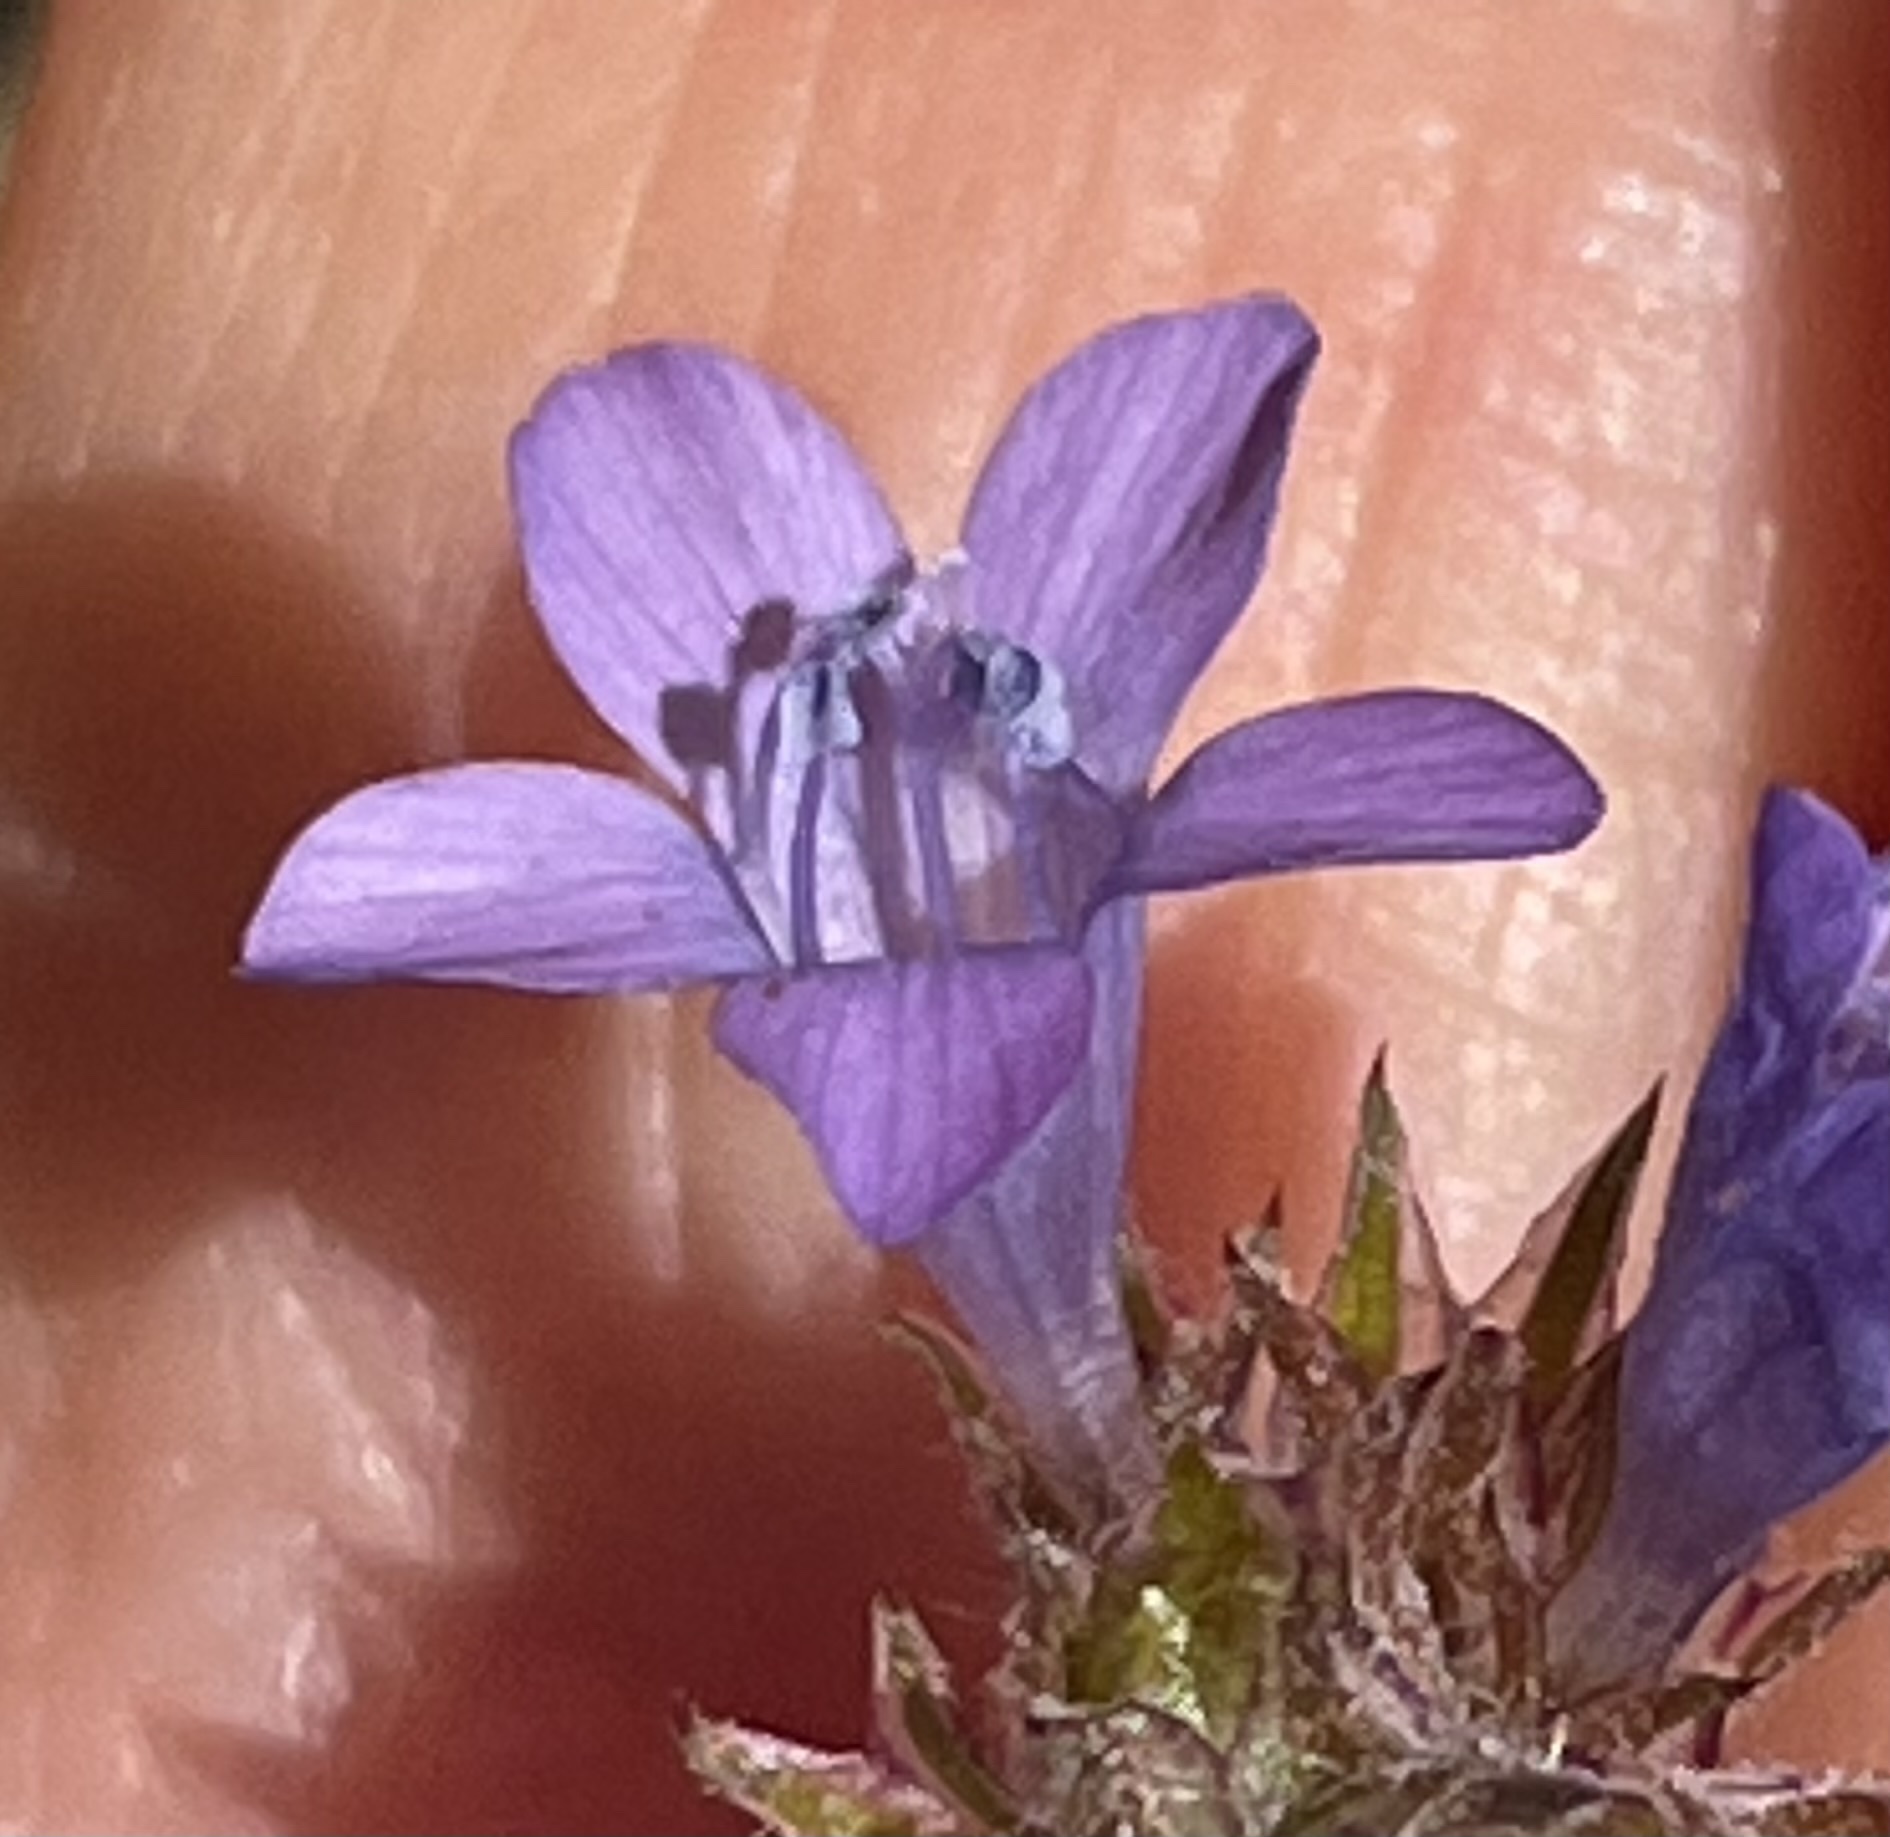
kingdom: Plantae
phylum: Tracheophyta
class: Magnoliopsida
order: Ericales
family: Polemoniaceae
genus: Gilia
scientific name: Gilia achilleifolia
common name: California gily-flower
